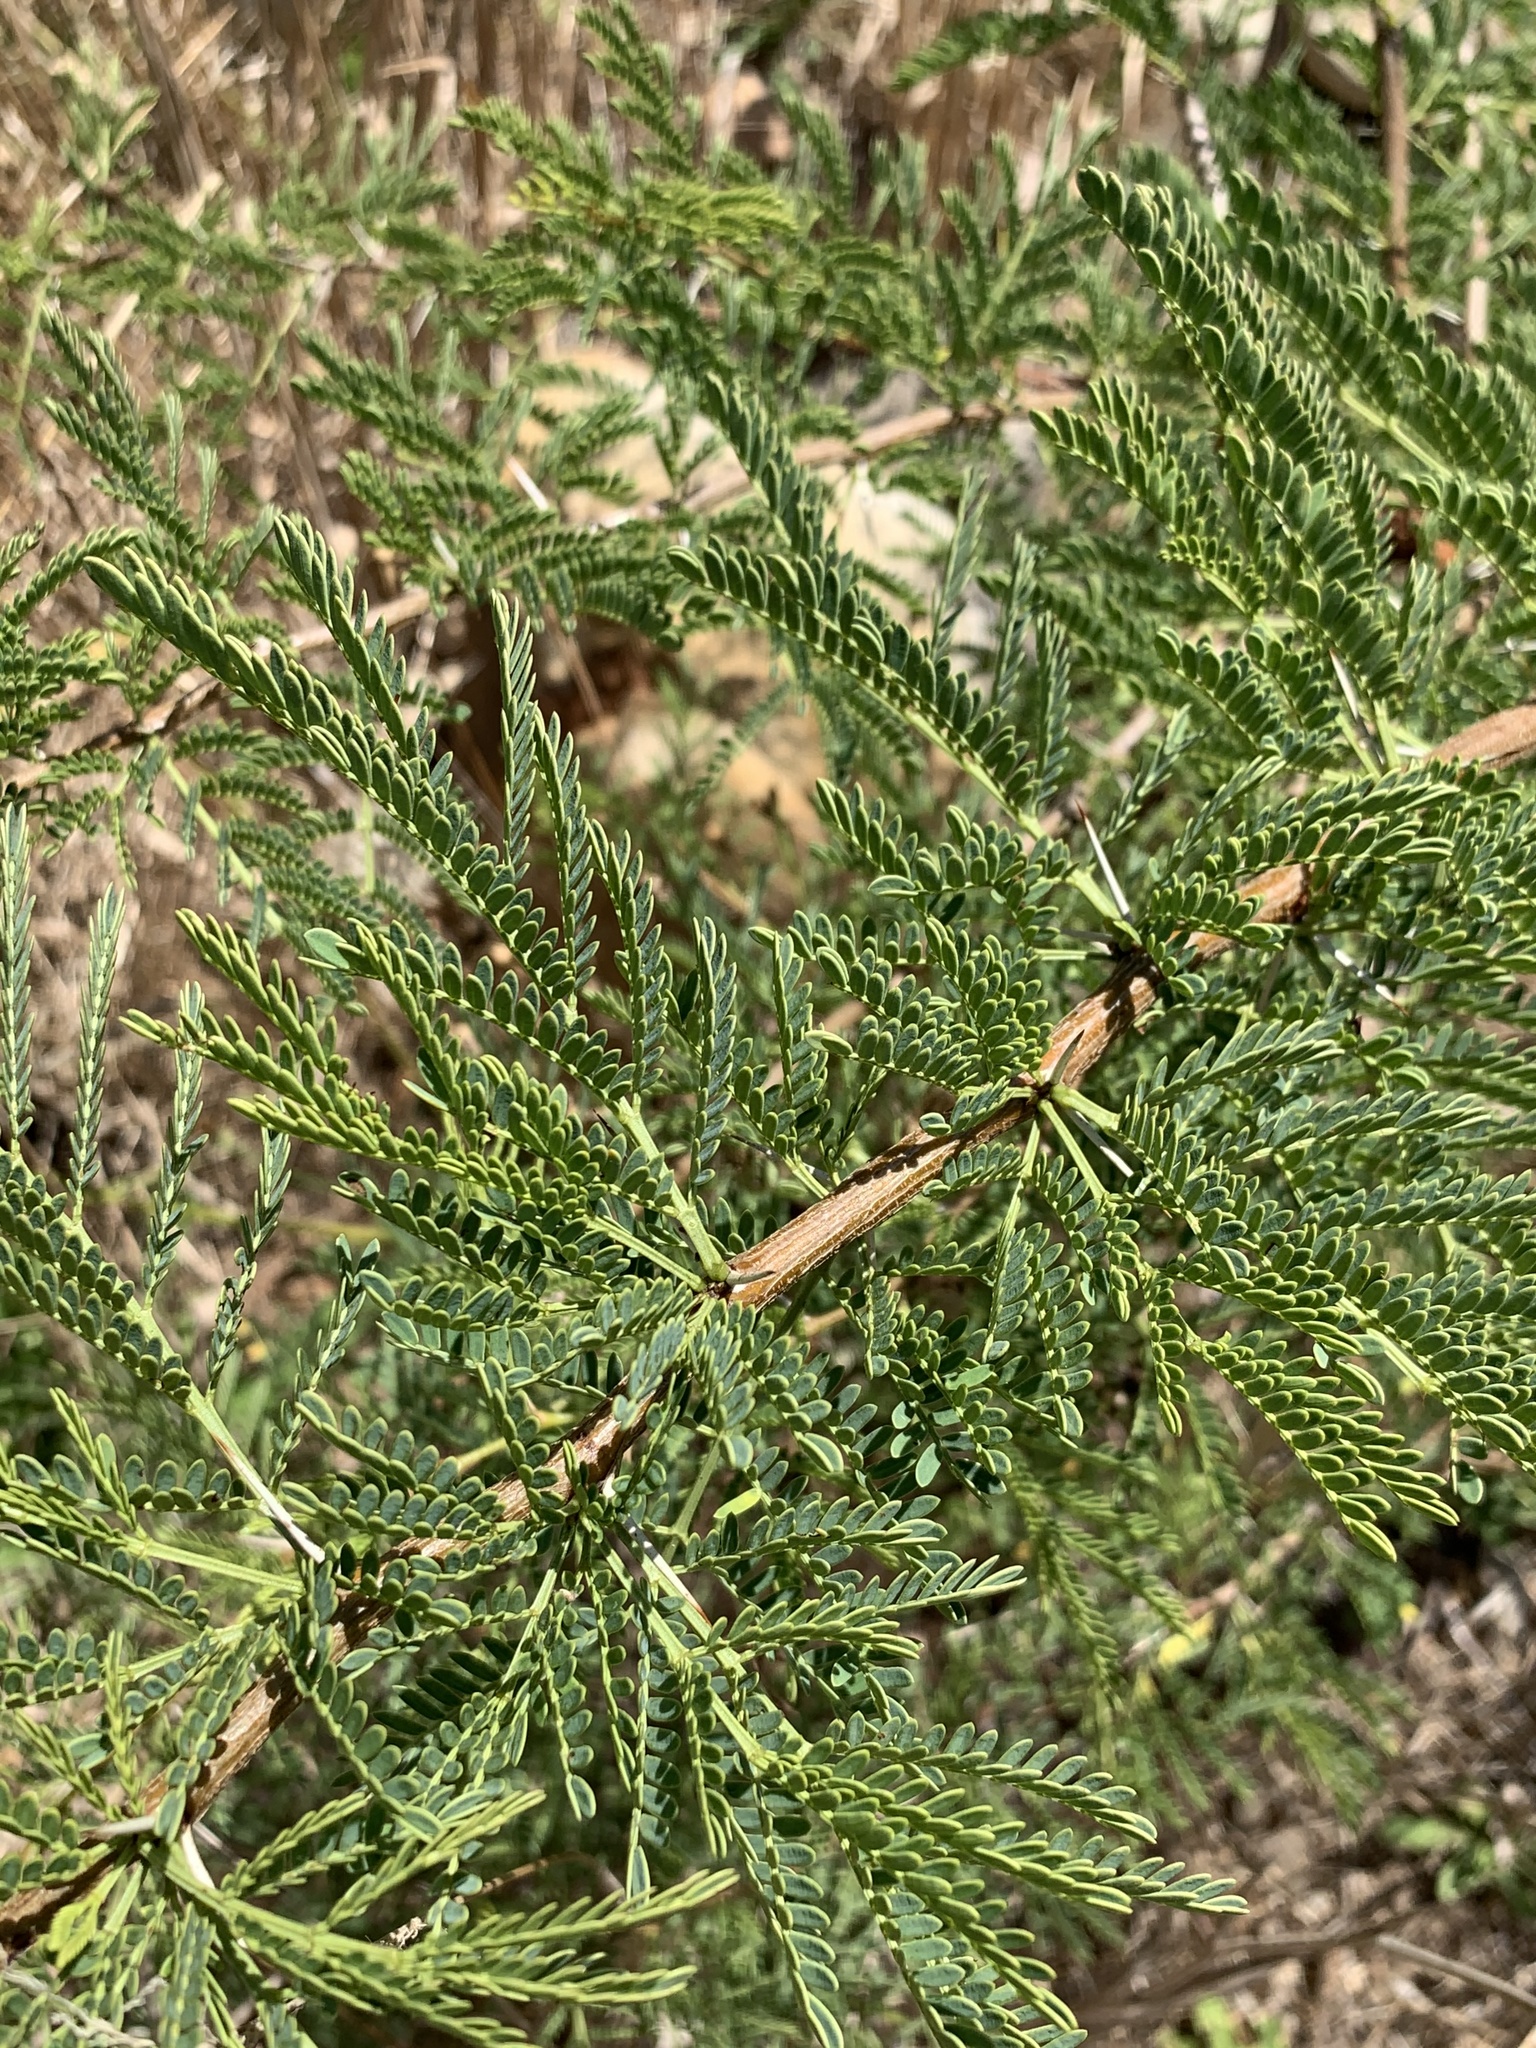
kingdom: Plantae
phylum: Tracheophyta
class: Magnoliopsida
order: Fabales
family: Fabaceae
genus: Vachellia
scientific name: Vachellia karroo
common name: Sweet thorn
